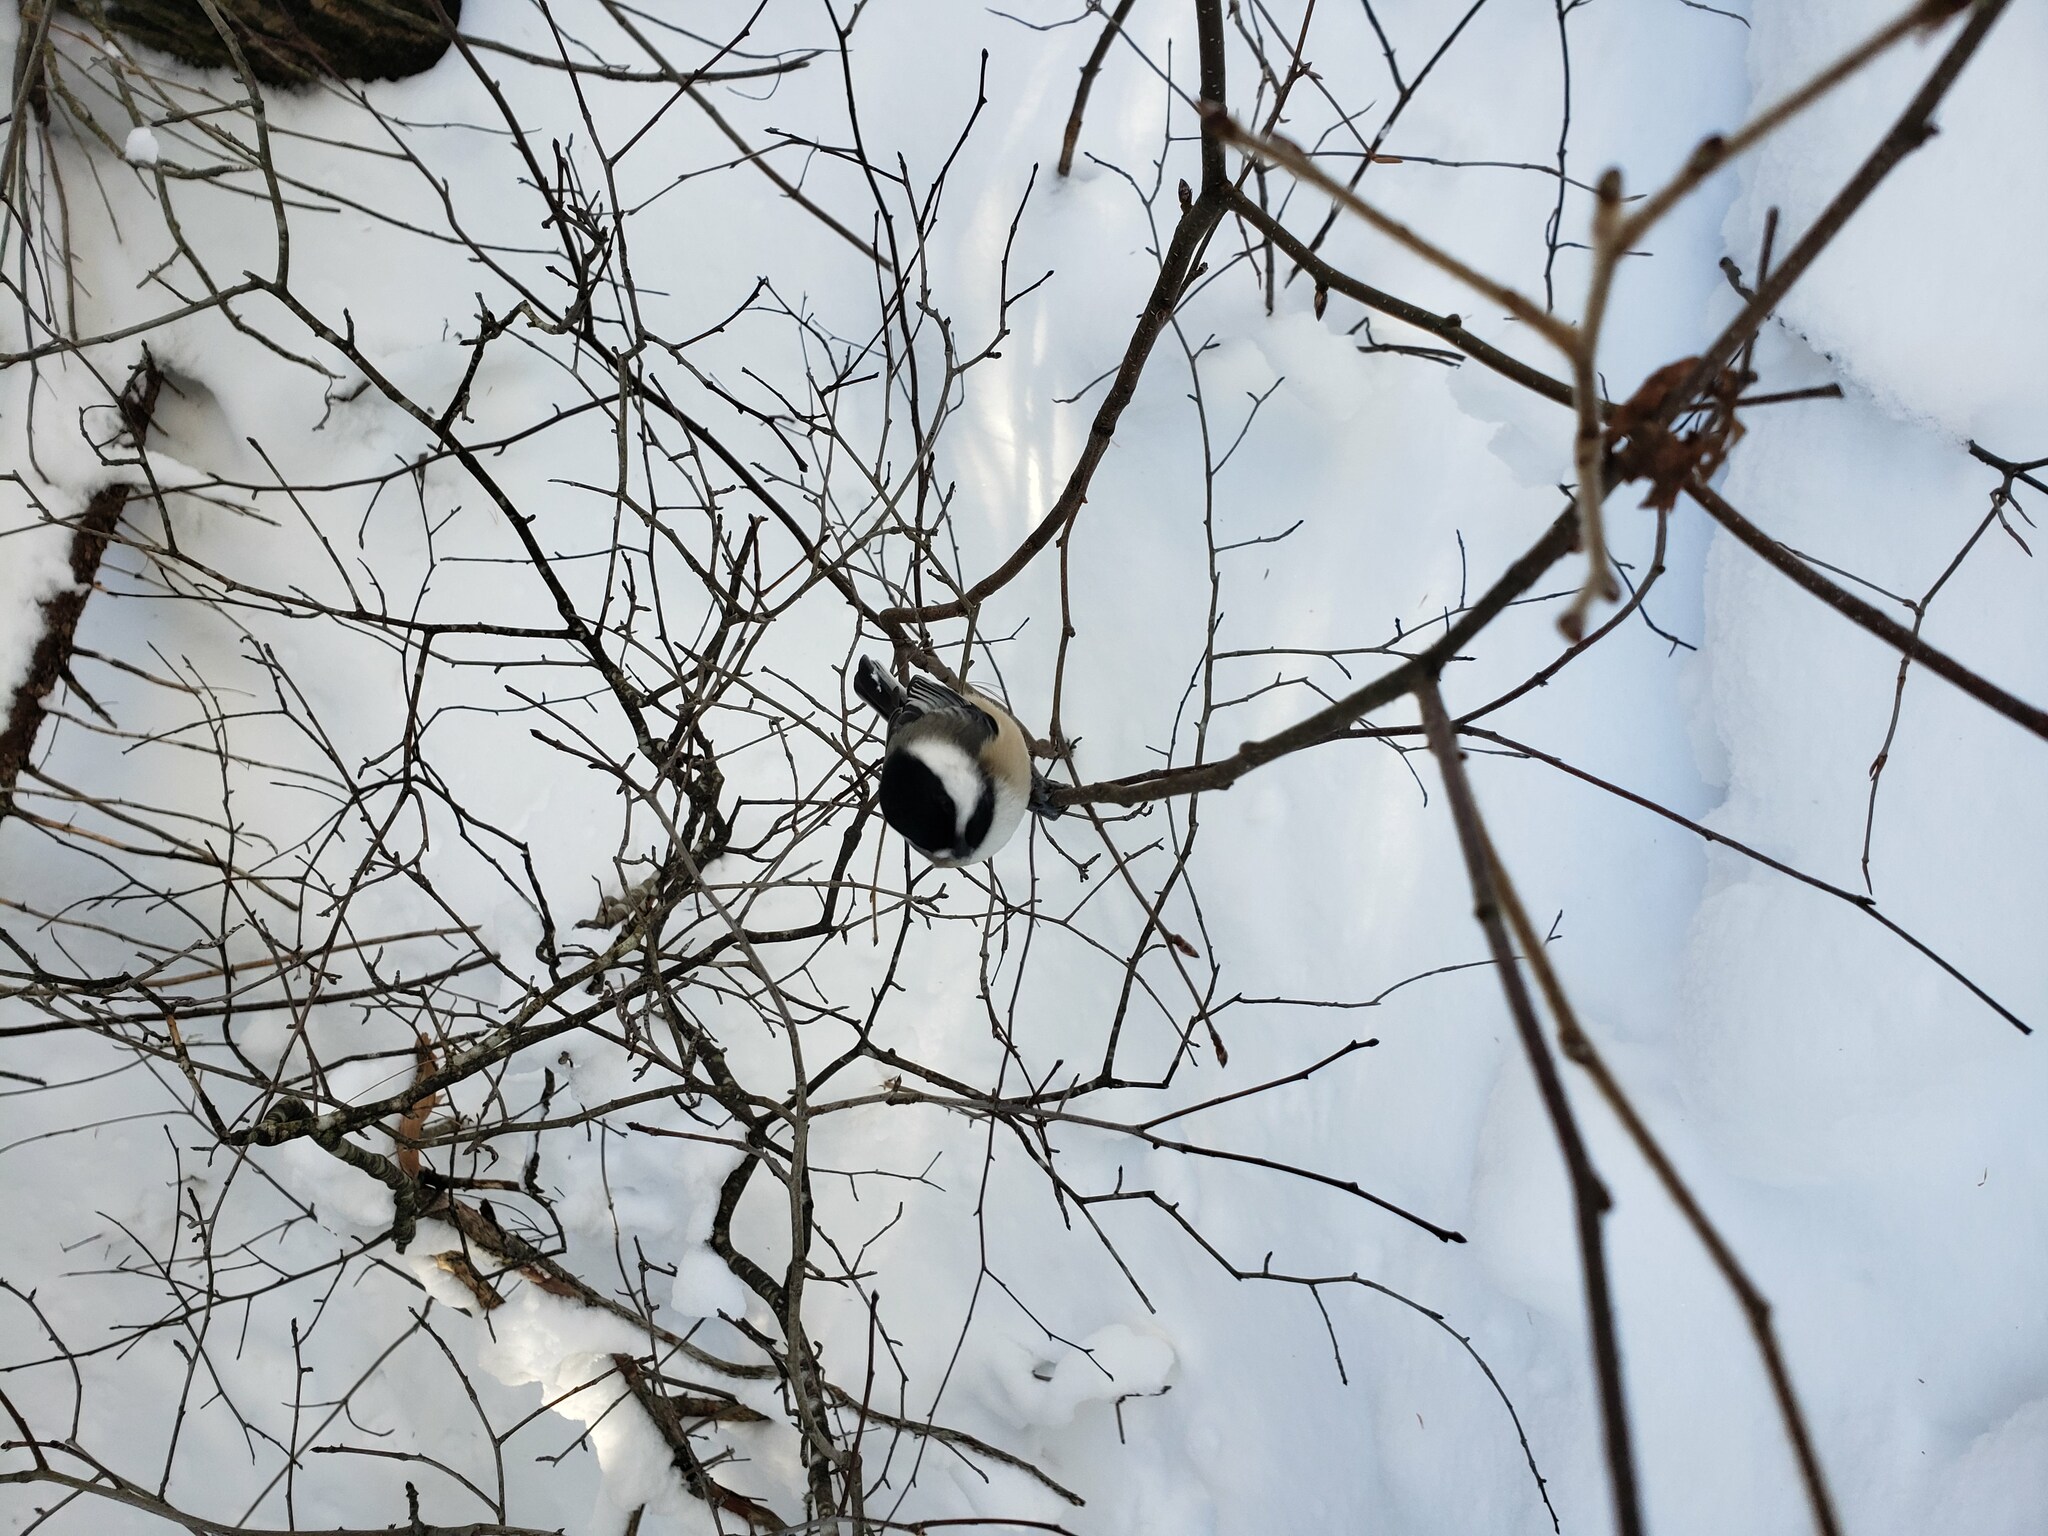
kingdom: Animalia
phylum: Chordata
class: Aves
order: Passeriformes
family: Paridae
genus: Poecile
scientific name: Poecile atricapillus
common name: Black-capped chickadee
